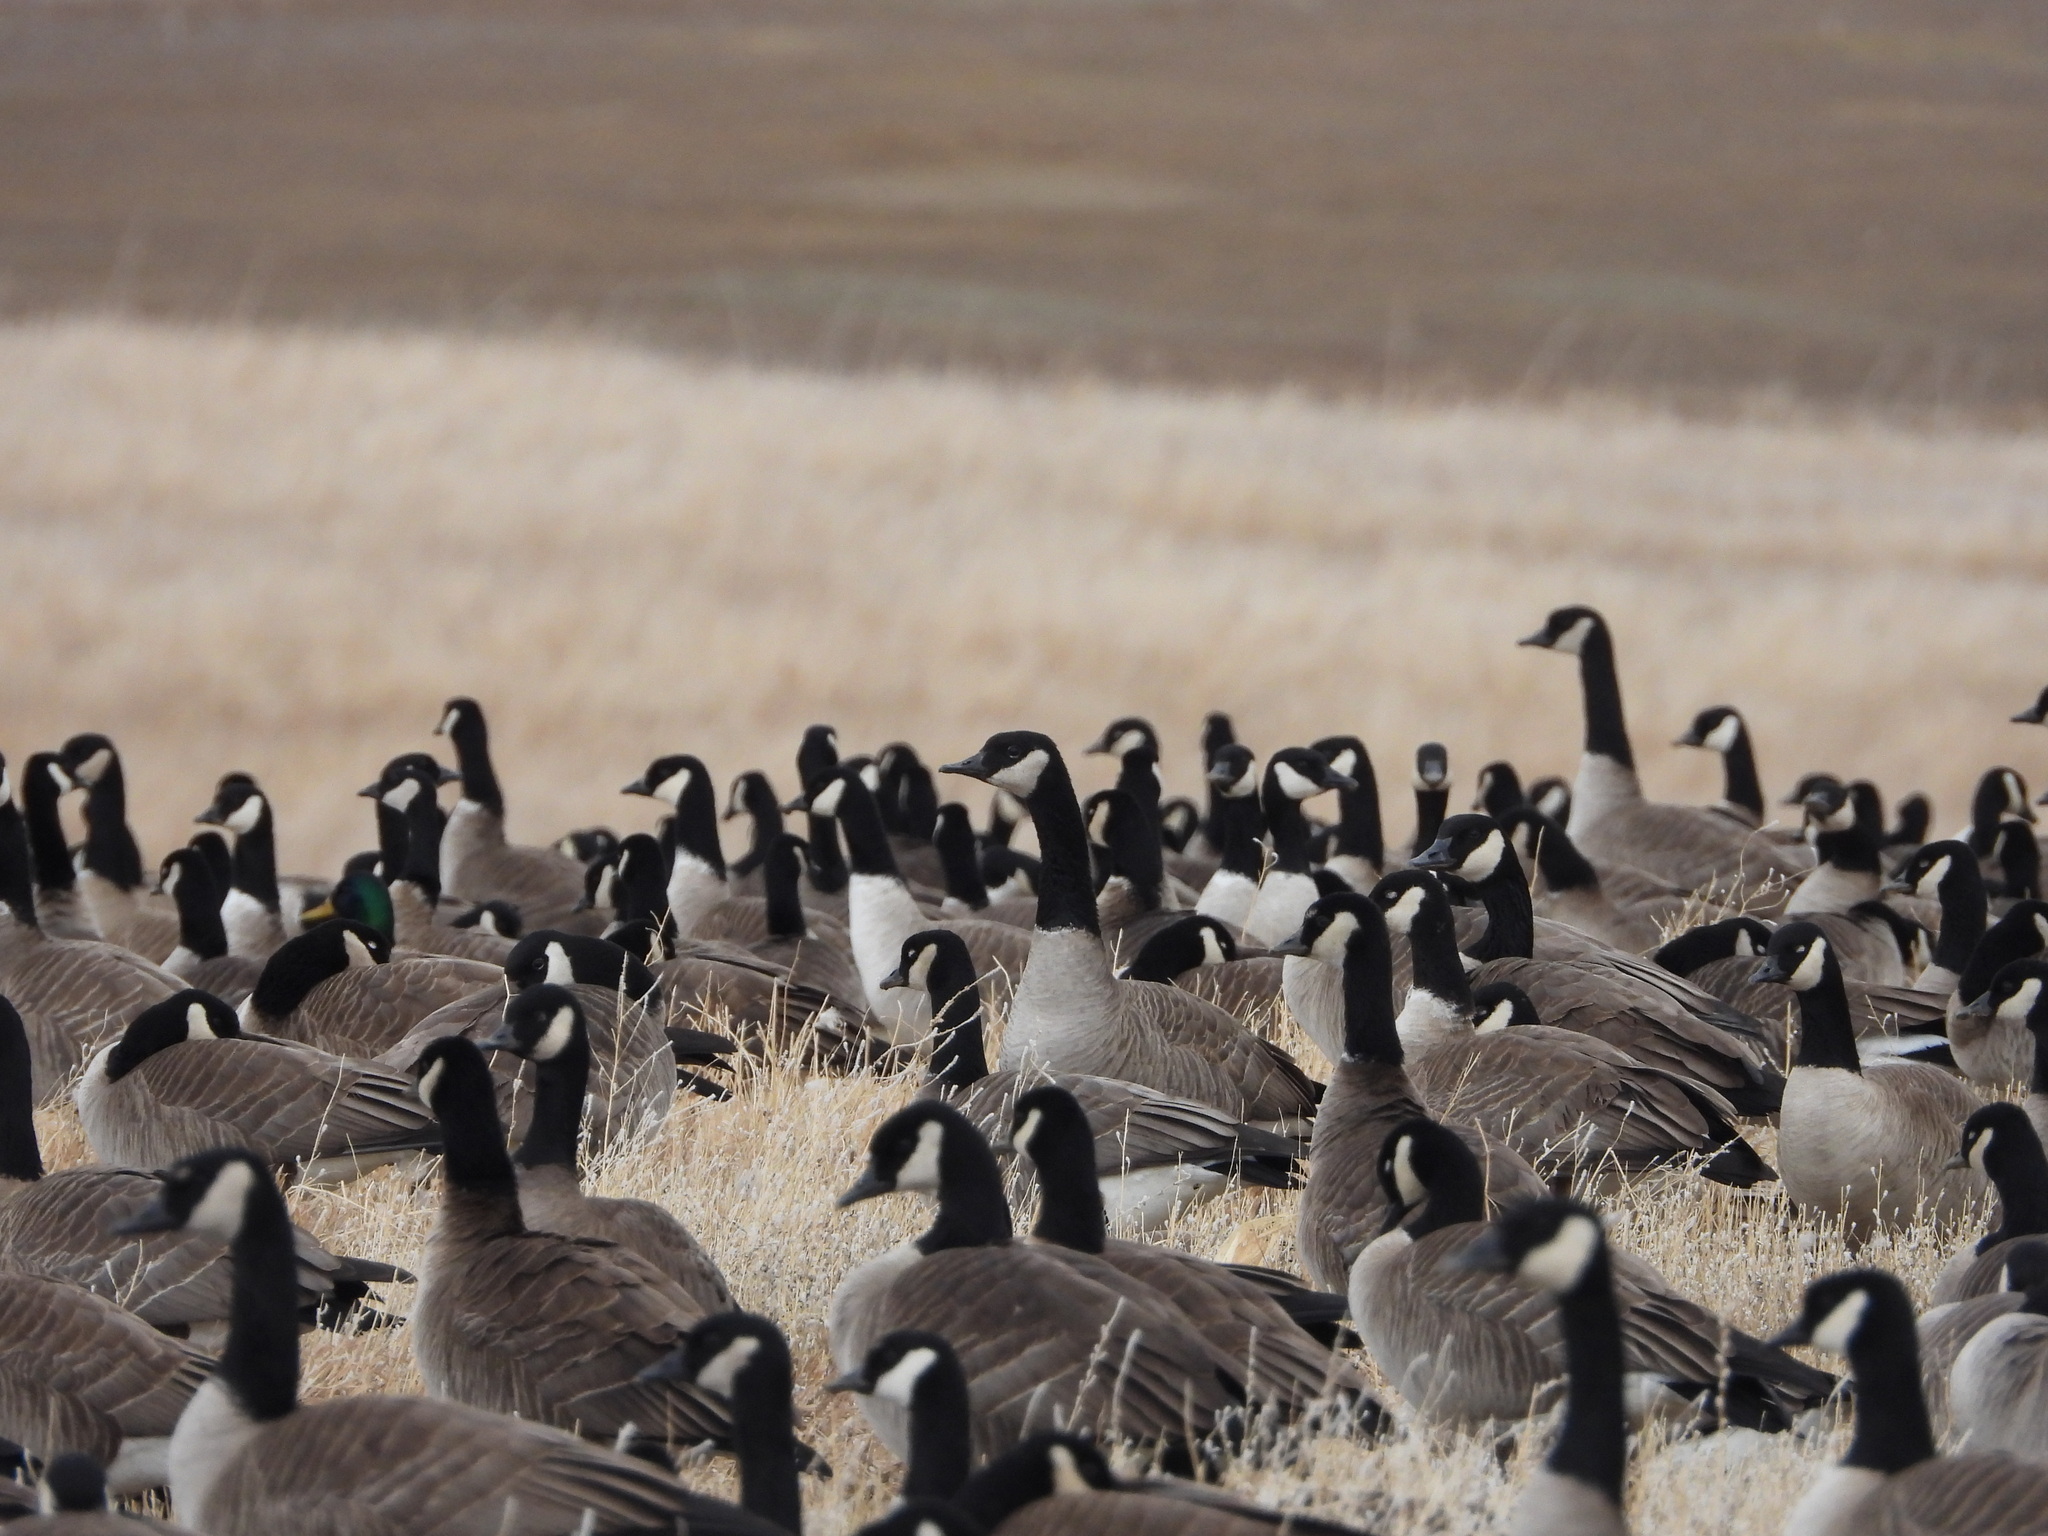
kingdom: Animalia
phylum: Chordata
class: Aves
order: Anseriformes
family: Anatidae
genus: Branta
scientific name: Branta canadensis
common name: Canada goose
